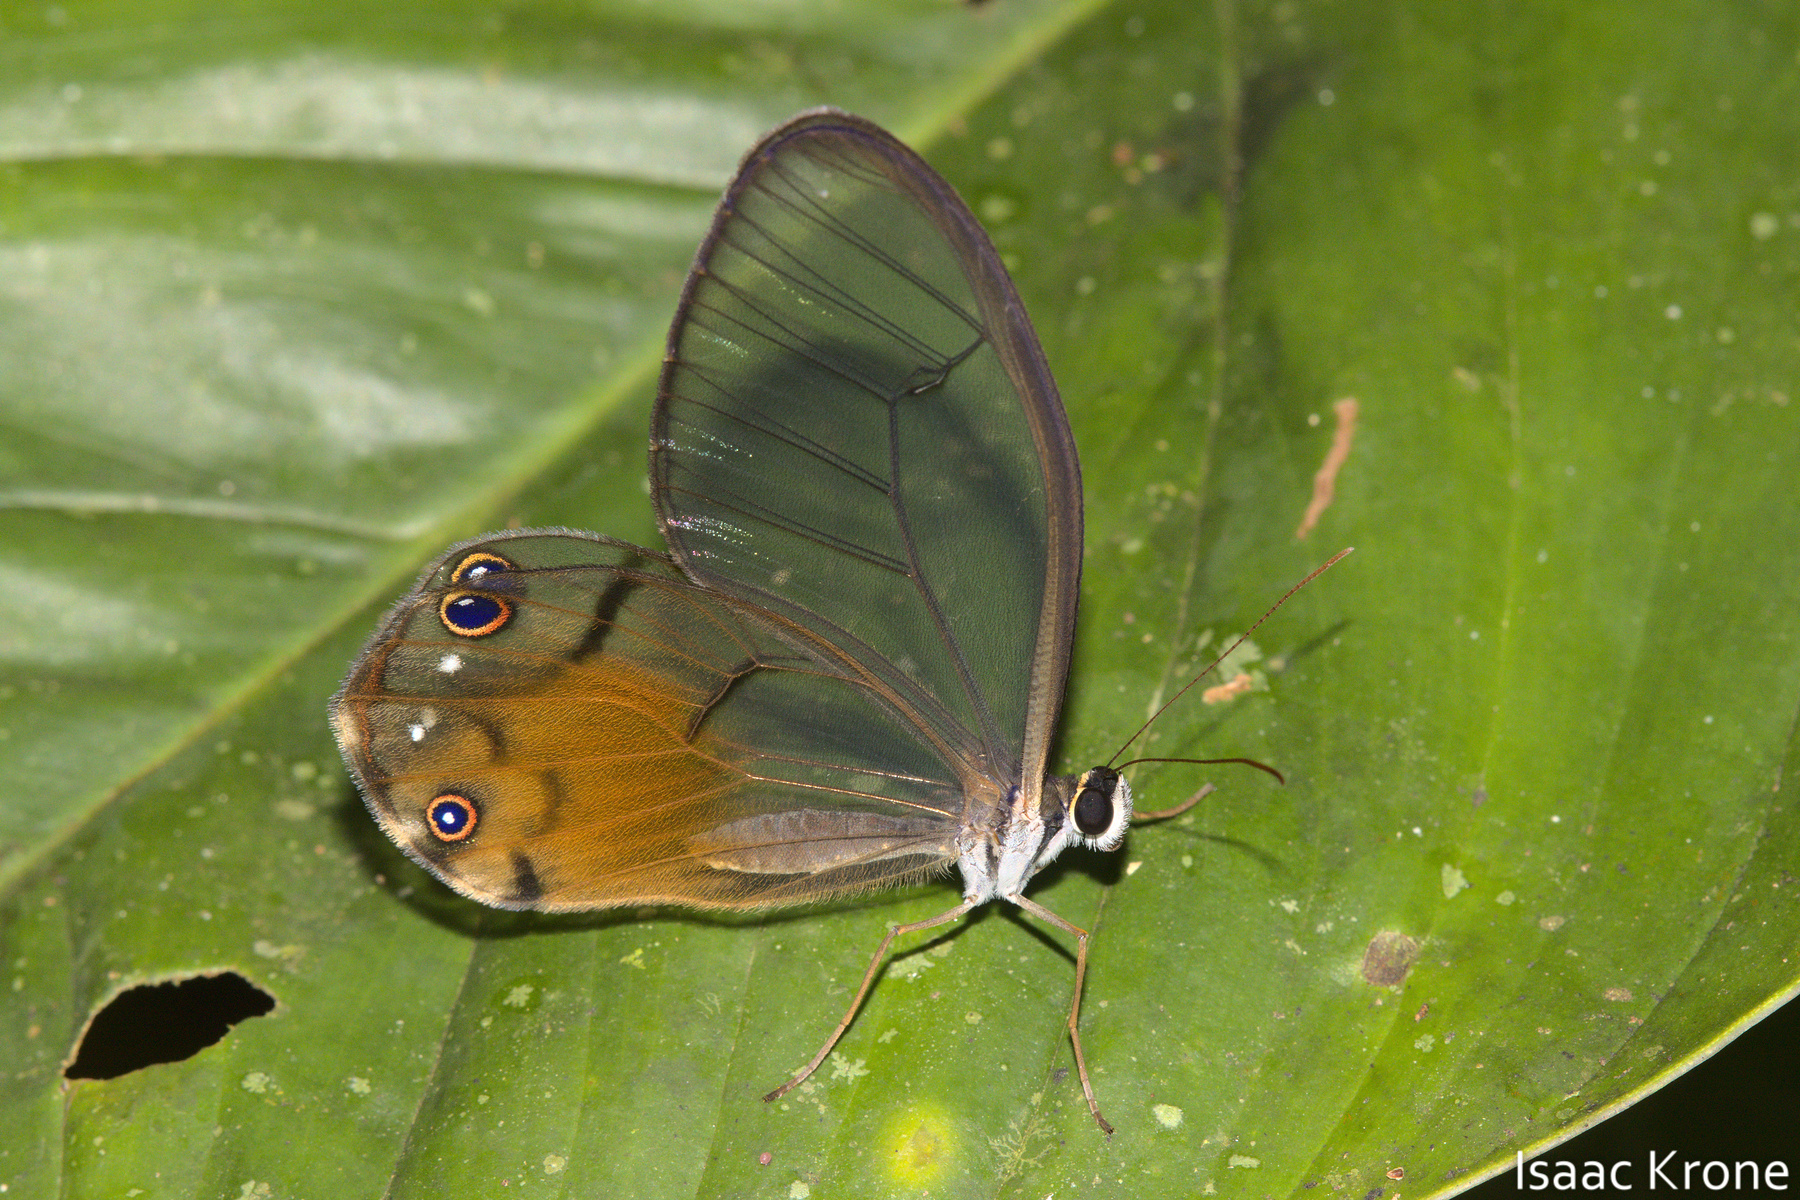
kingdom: Animalia
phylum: Arthropoda
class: Insecta
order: Lepidoptera
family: Nymphalidae
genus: Haetera
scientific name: Haetera piera
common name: Amber phantom
